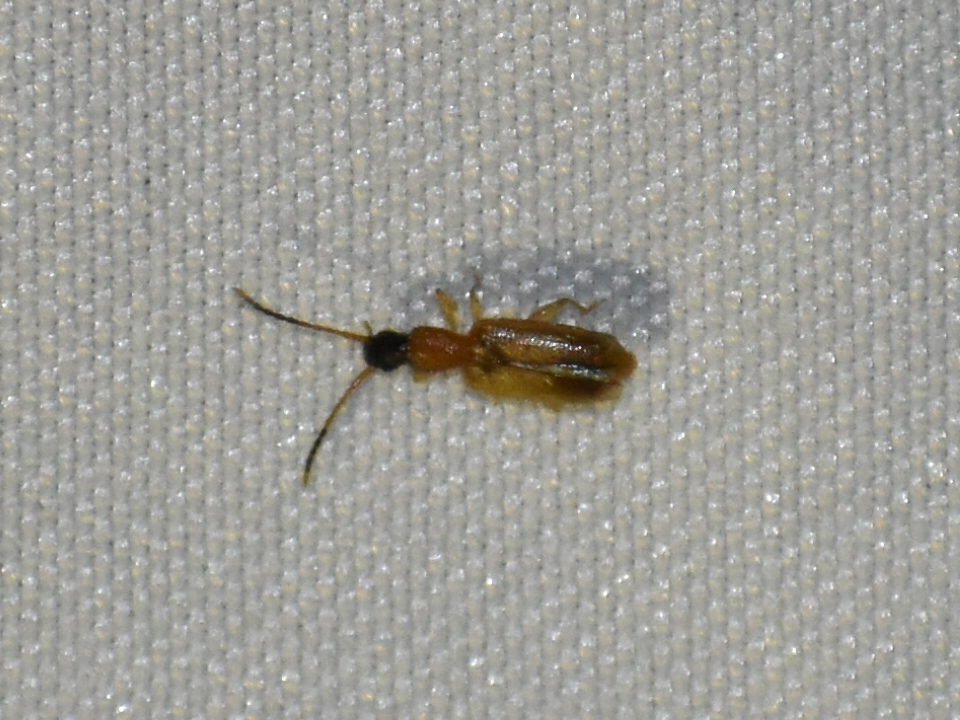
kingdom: Animalia
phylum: Arthropoda
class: Insecta
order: Coleoptera
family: Silvanidae
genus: Telephanus
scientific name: Telephanus velox
